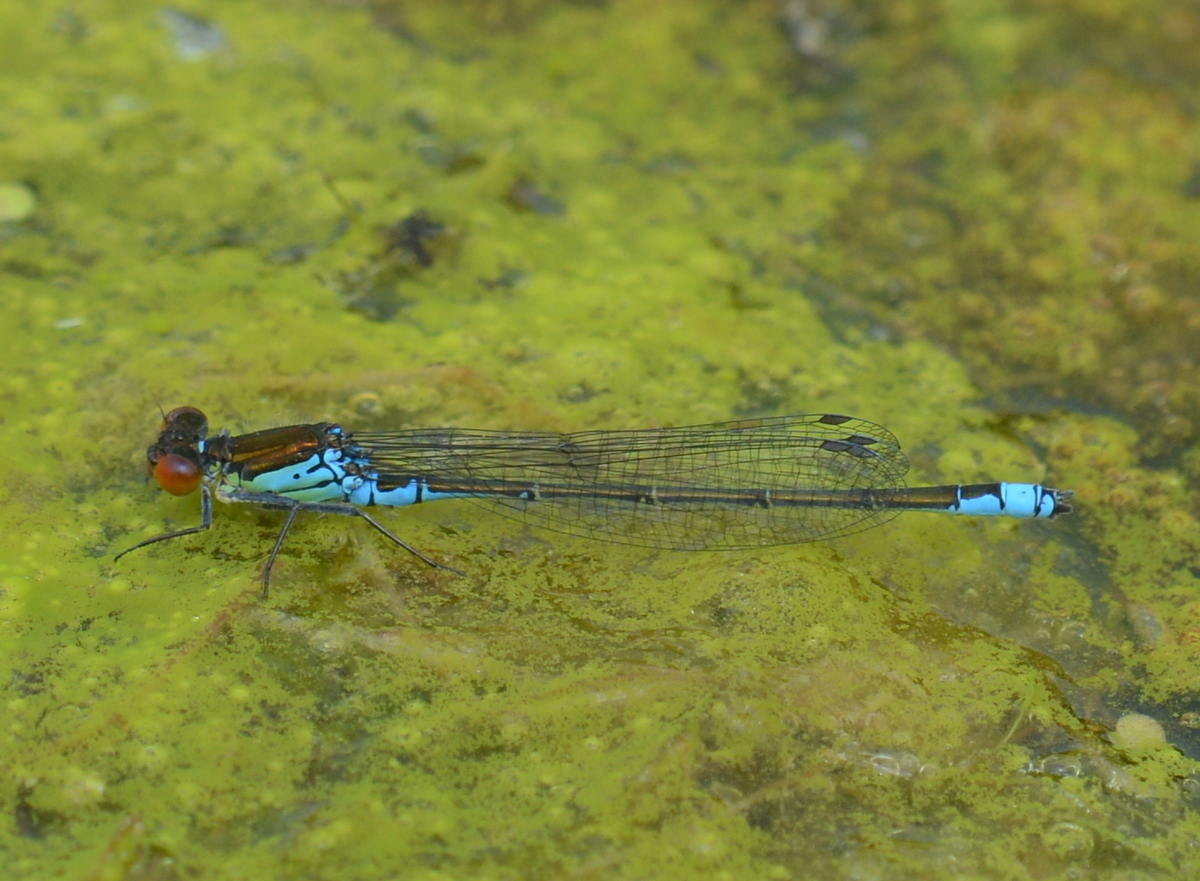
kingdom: Animalia
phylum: Arthropoda
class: Insecta
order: Odonata
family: Coenagrionidae
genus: Erythromma
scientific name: Erythromma viridulum
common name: Small red-eyed damselfly
